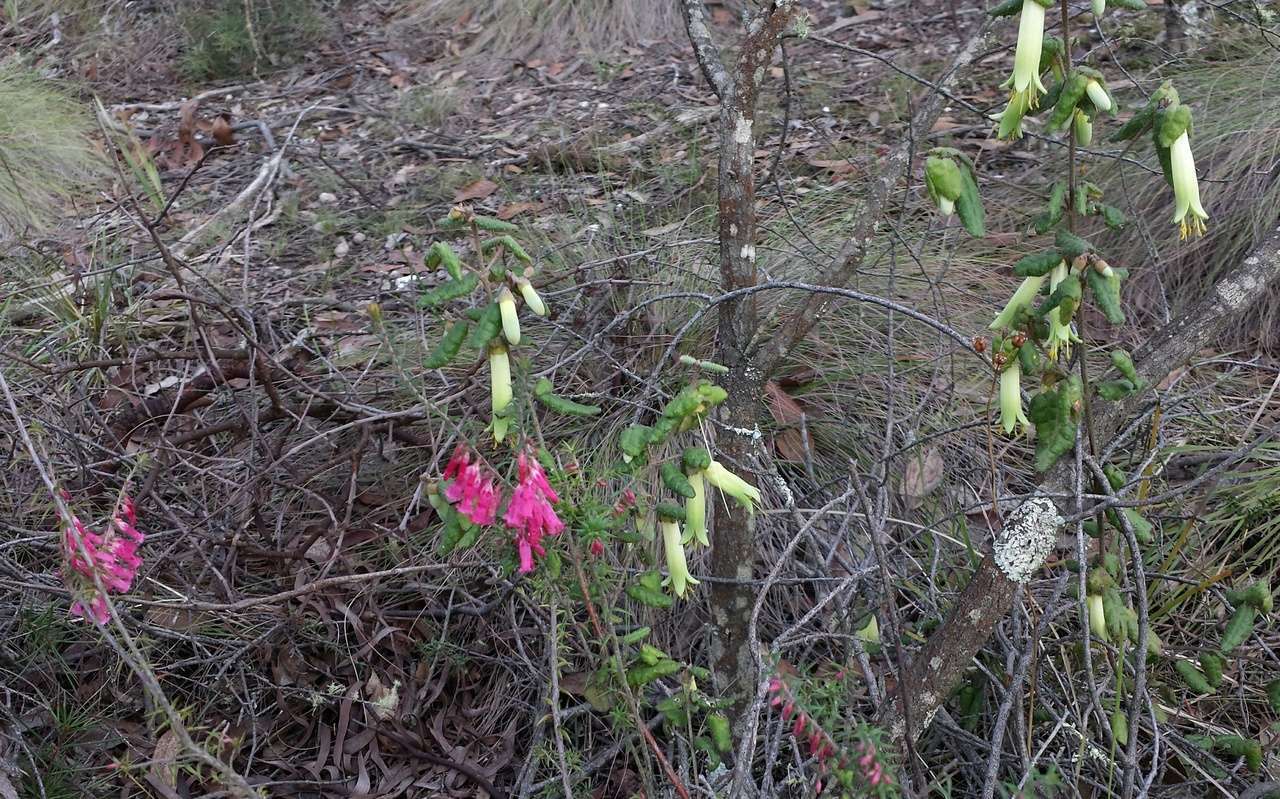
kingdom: Plantae
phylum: Tracheophyta
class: Magnoliopsida
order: Ericales
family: Ericaceae
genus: Epacris
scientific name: Epacris impressa
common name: Common-heath
